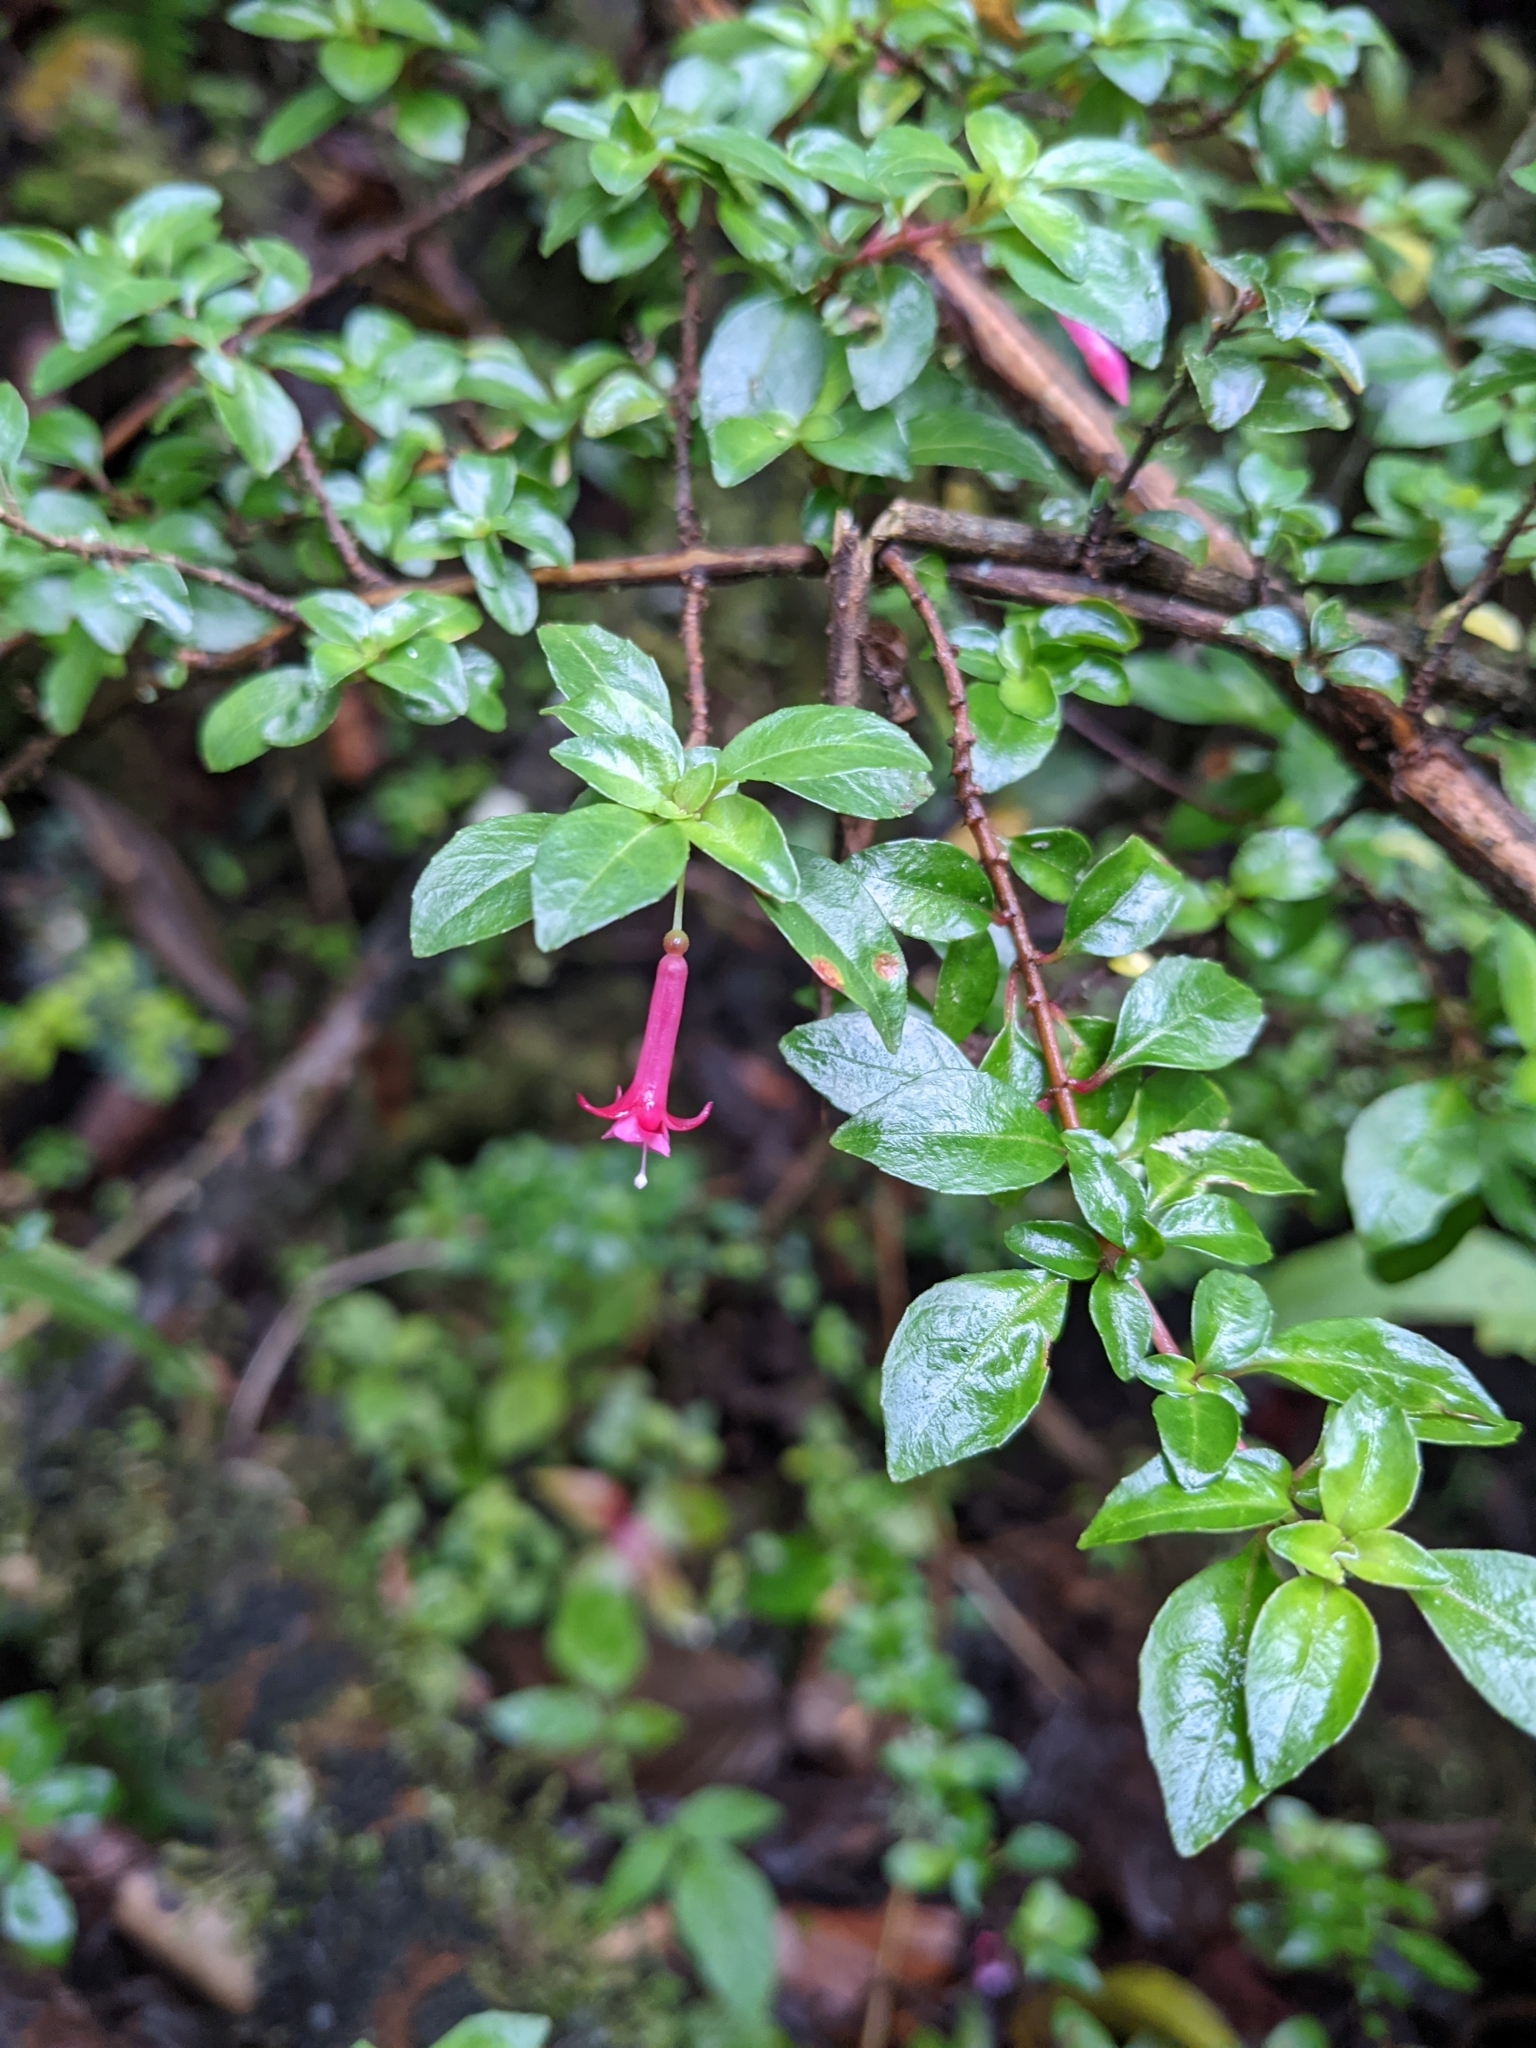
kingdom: Plantae
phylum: Tracheophyta
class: Magnoliopsida
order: Myrtales
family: Onagraceae
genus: Fuchsia
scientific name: Fuchsia microphylla
